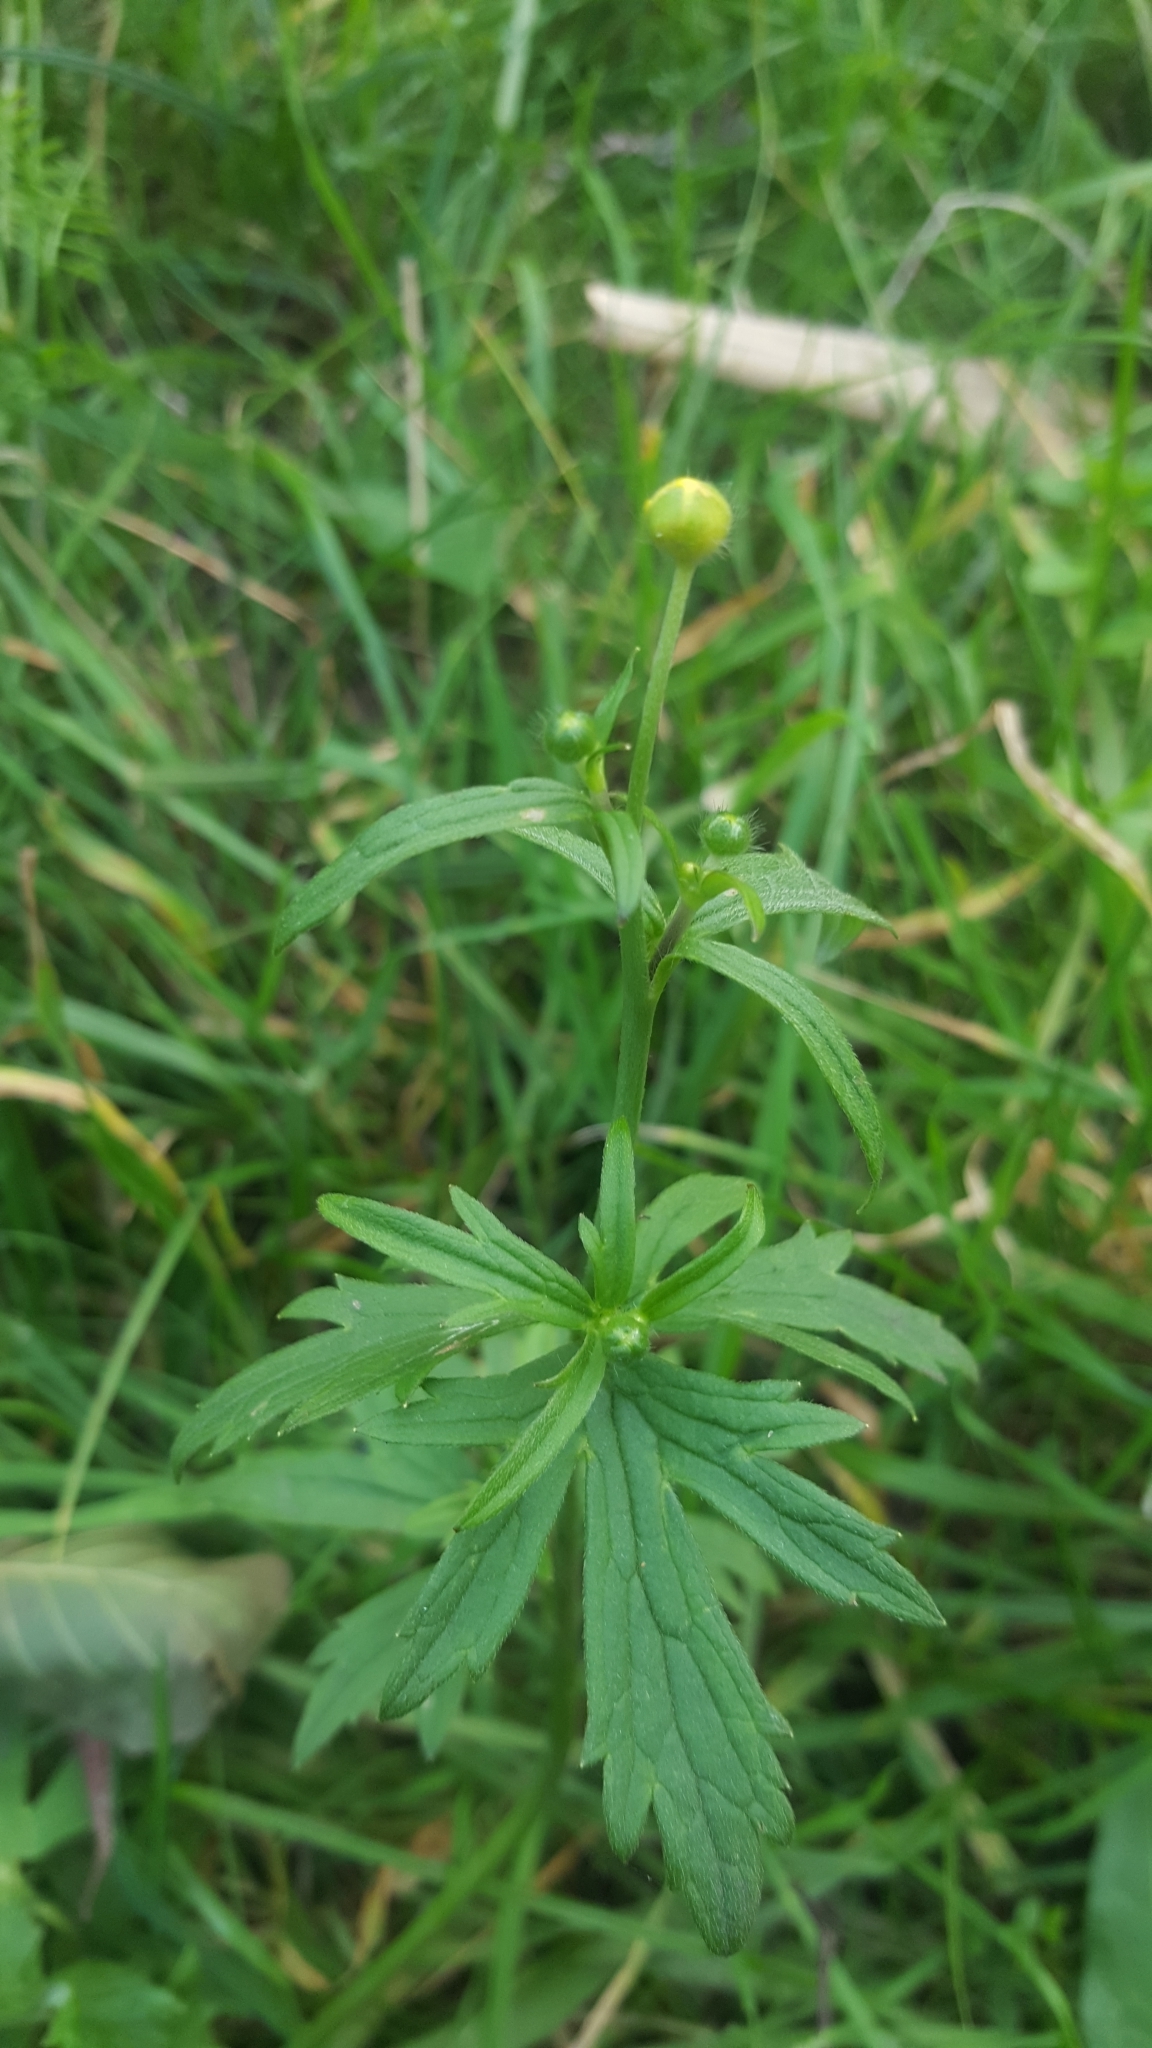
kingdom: Plantae
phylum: Tracheophyta
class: Magnoliopsida
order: Ranunculales
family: Ranunculaceae
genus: Ranunculus
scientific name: Ranunculus acris
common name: Meadow buttercup
